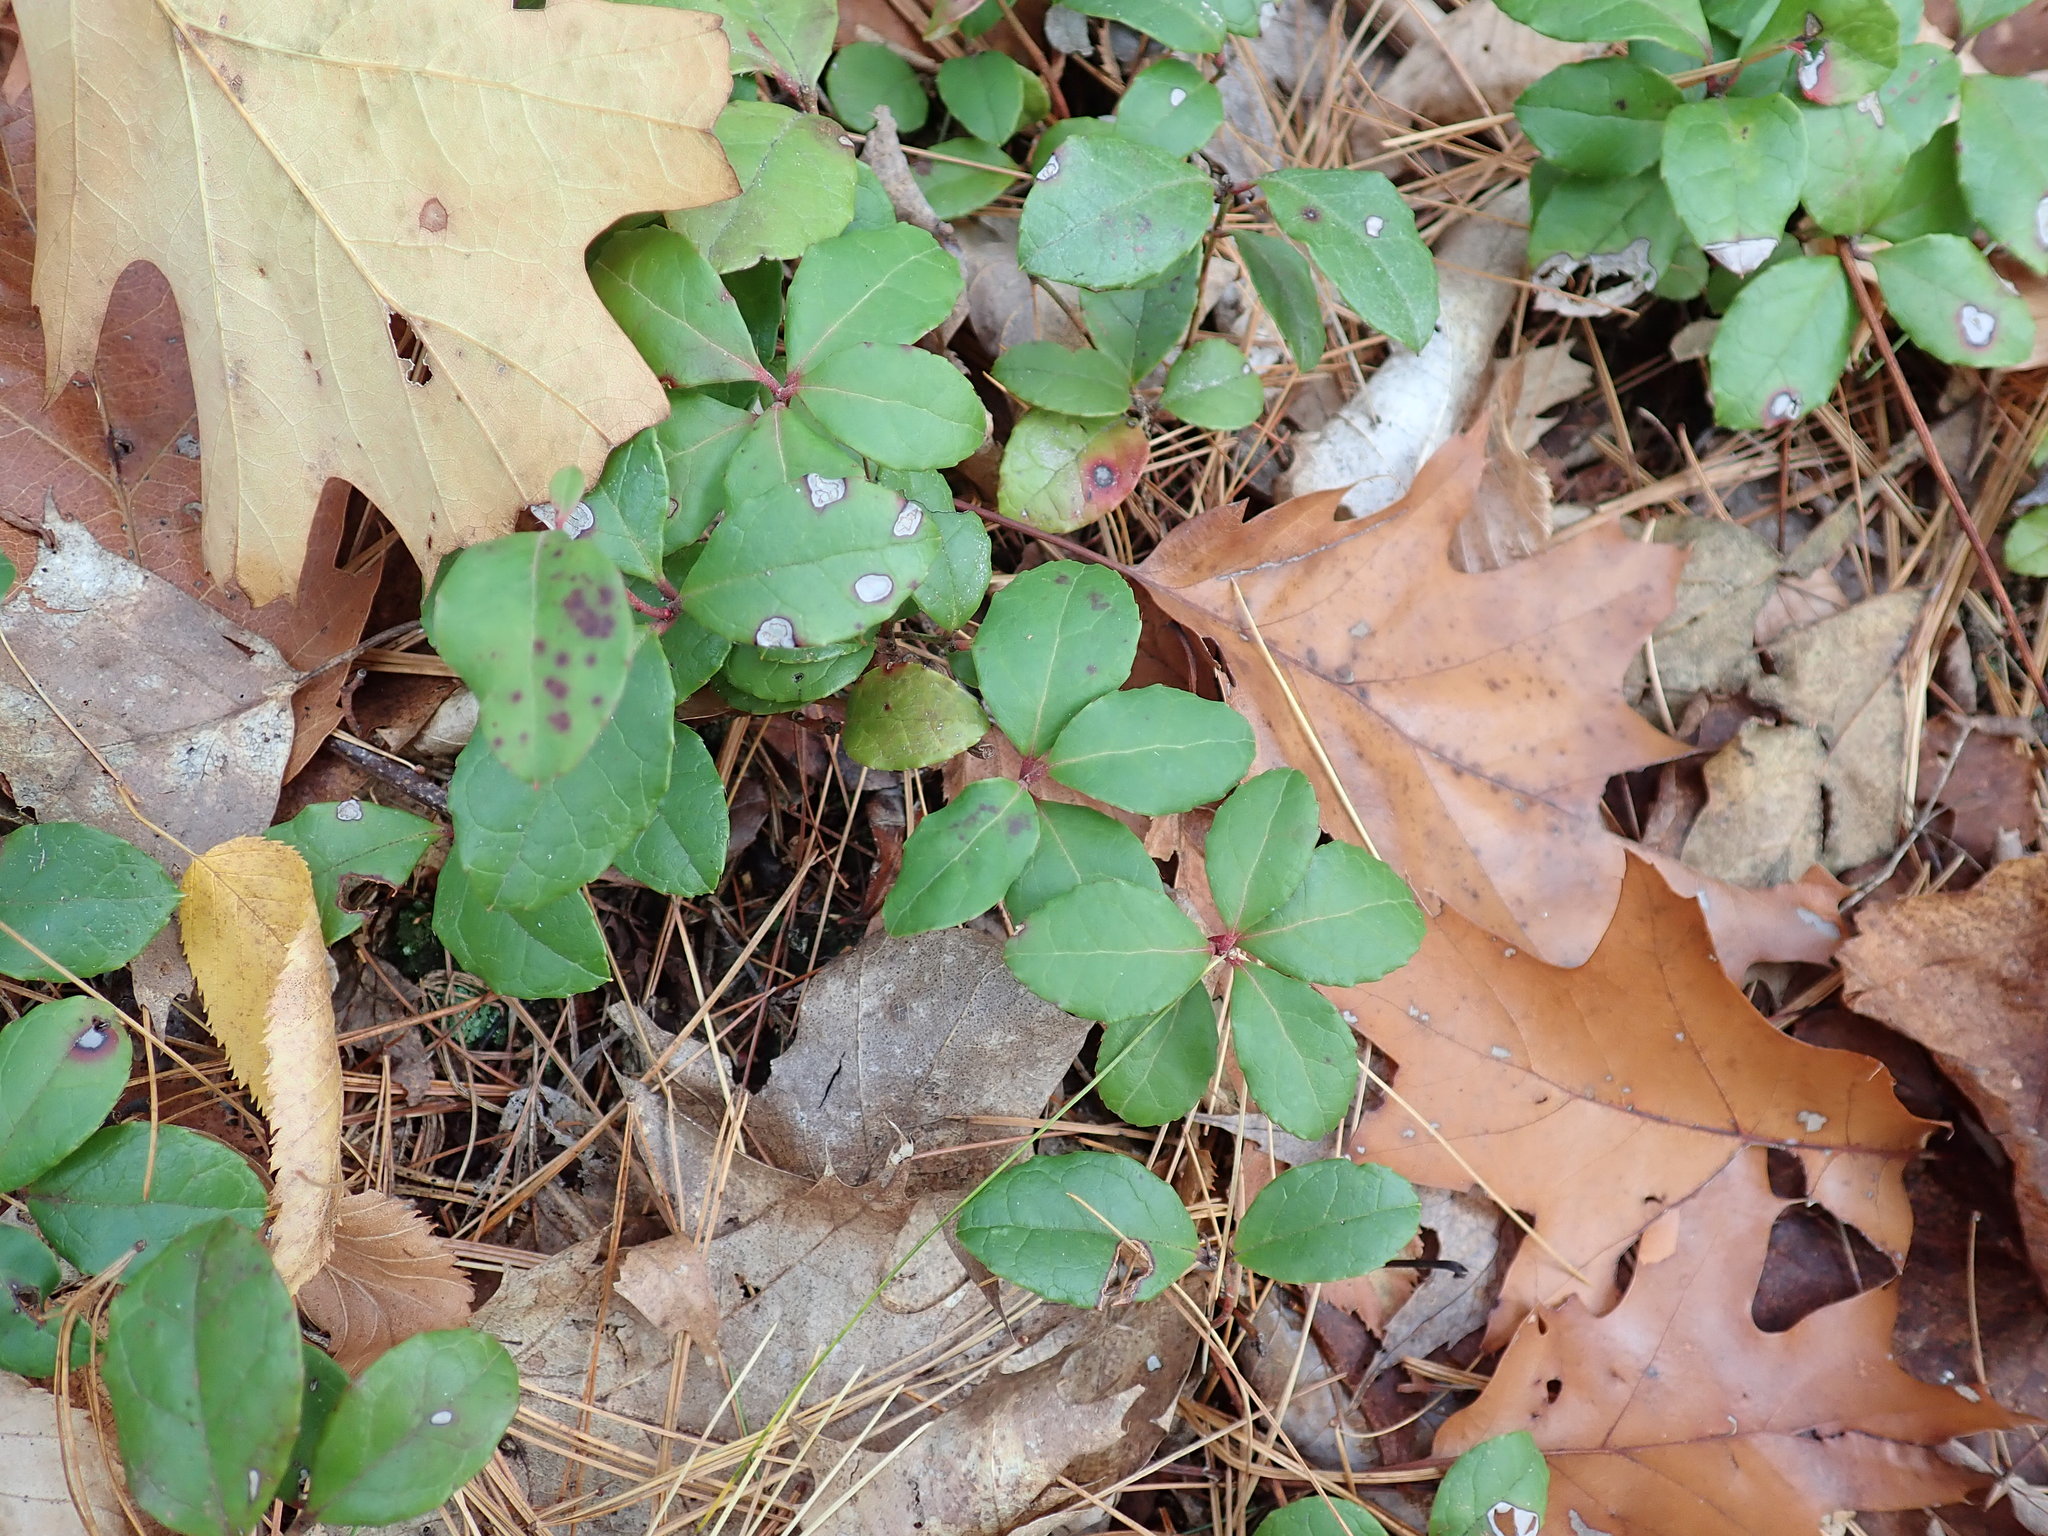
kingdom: Plantae
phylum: Tracheophyta
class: Magnoliopsida
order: Ericales
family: Ericaceae
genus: Gaultheria
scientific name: Gaultheria procumbens
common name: Checkerberry
